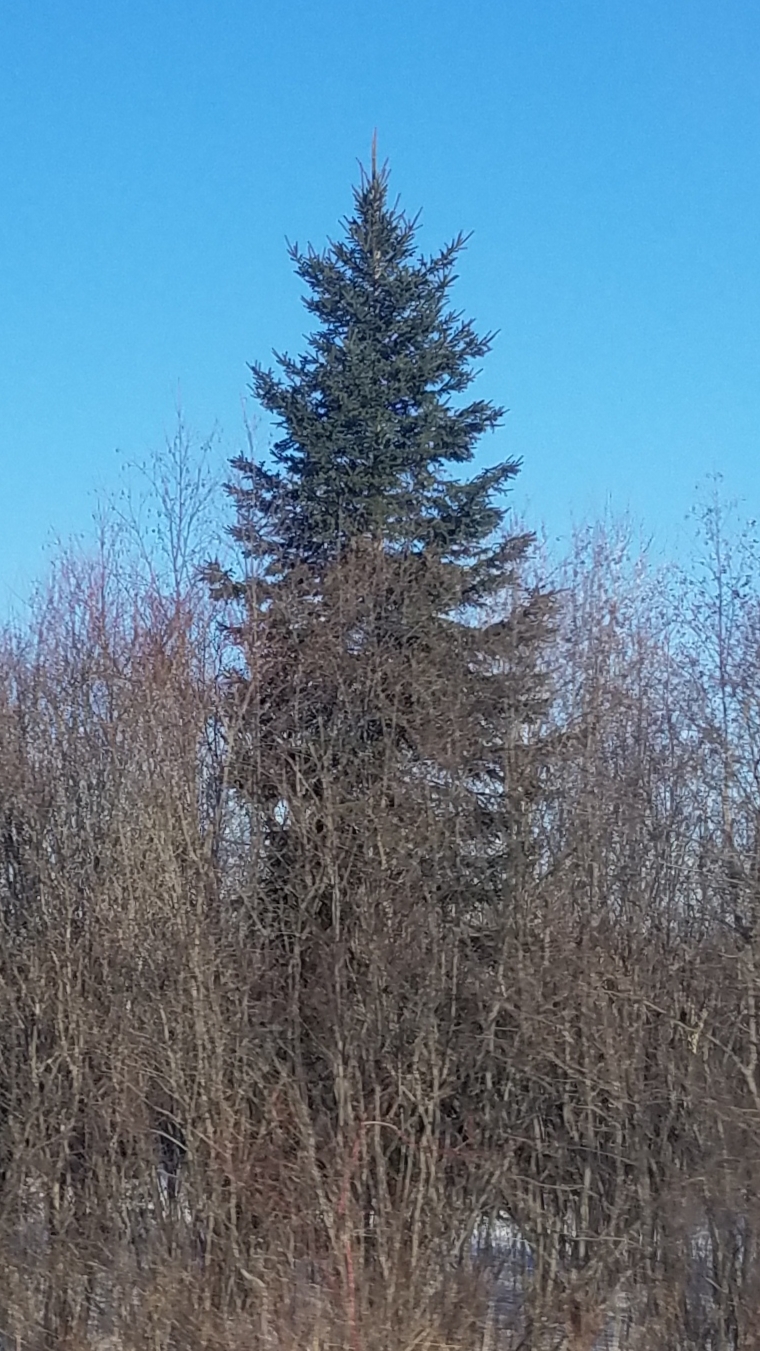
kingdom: Plantae
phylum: Tracheophyta
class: Pinopsida
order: Pinales
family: Pinaceae
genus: Picea
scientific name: Picea glauca
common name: White spruce
